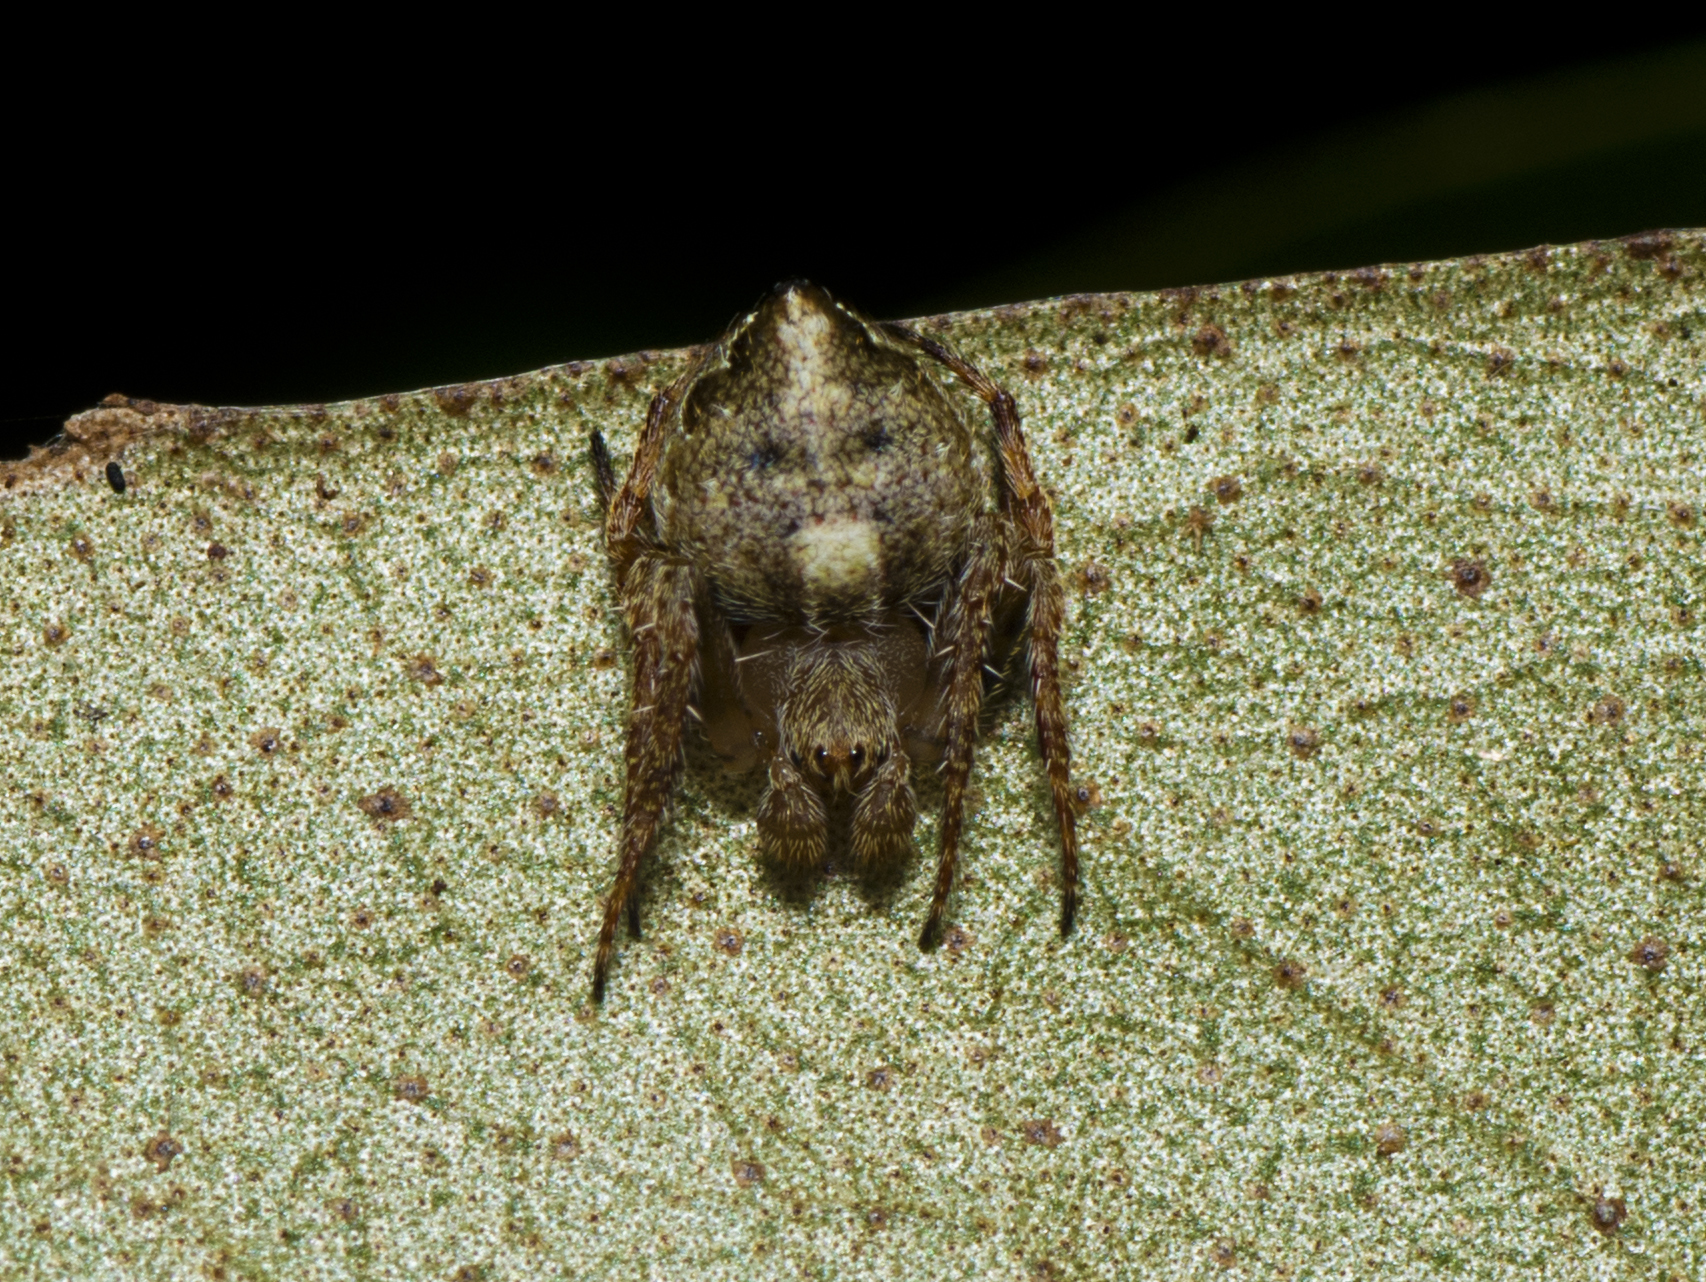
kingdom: Animalia
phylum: Arthropoda
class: Arachnida
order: Araneae
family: Araneidae
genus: Araneus
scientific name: Araneus acuminatus
